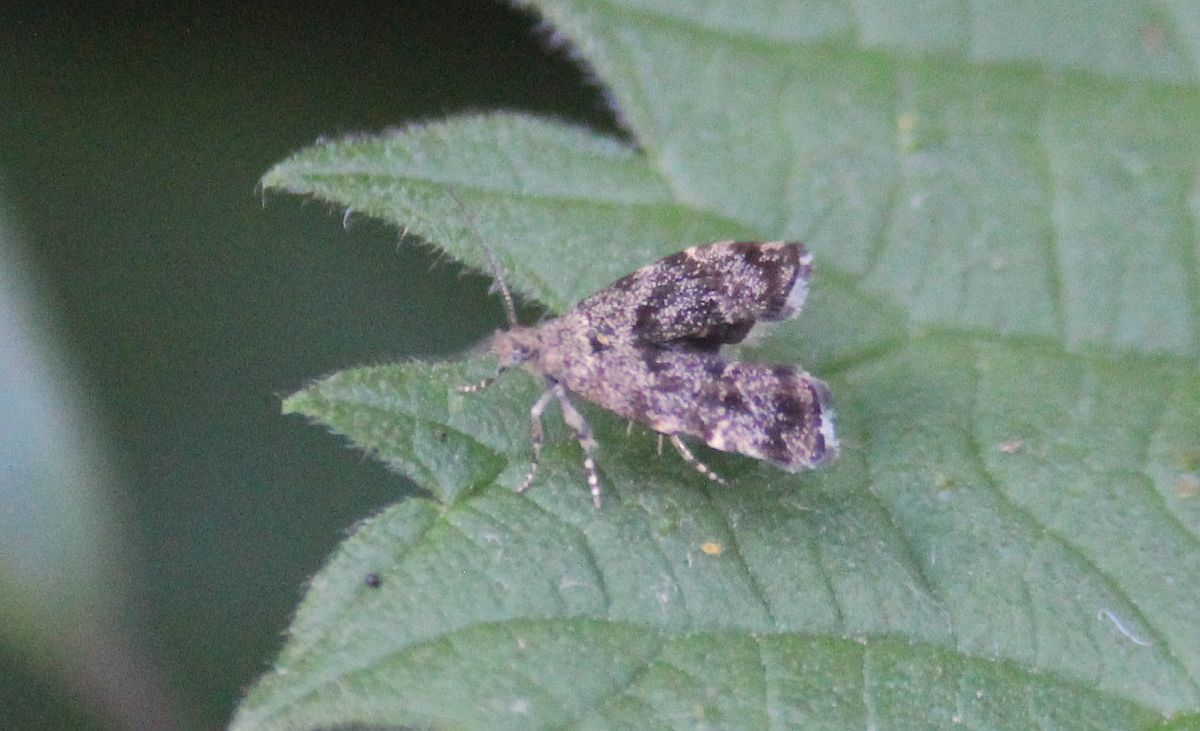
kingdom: Animalia
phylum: Arthropoda
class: Insecta
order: Lepidoptera
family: Choreutidae
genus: Anthophila
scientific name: Anthophila fabriciana
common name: Nettle-tap
